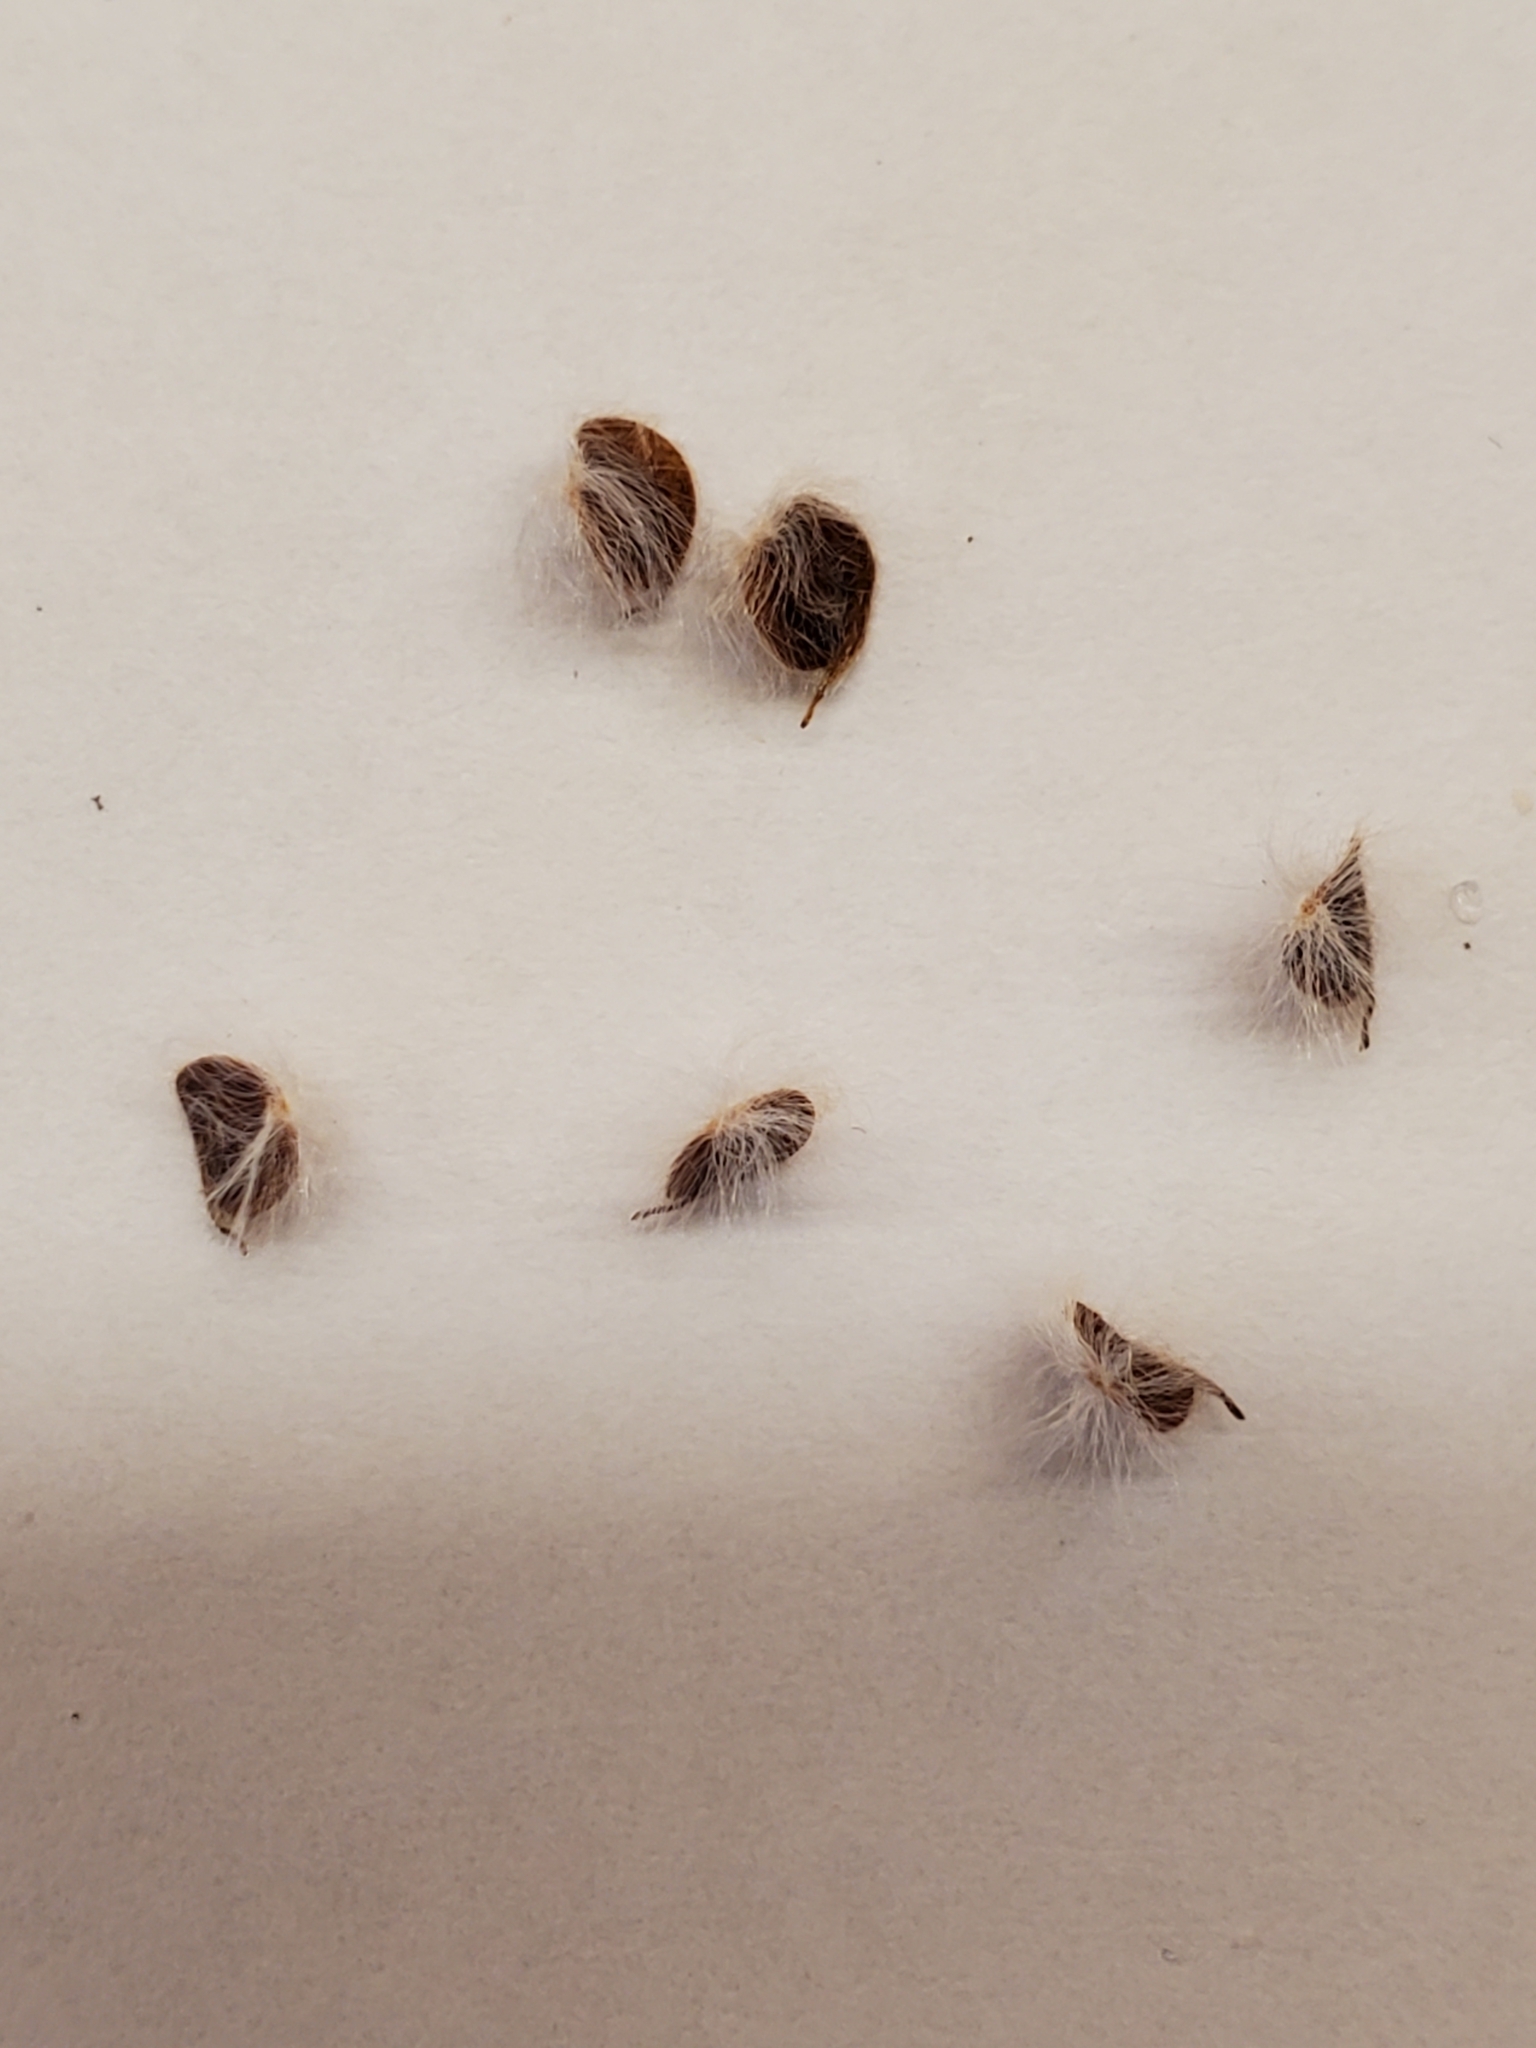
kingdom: Plantae
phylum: Tracheophyta
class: Magnoliopsida
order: Ranunculales
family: Ranunculaceae
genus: Anemone
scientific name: Anemone edwardsiana
